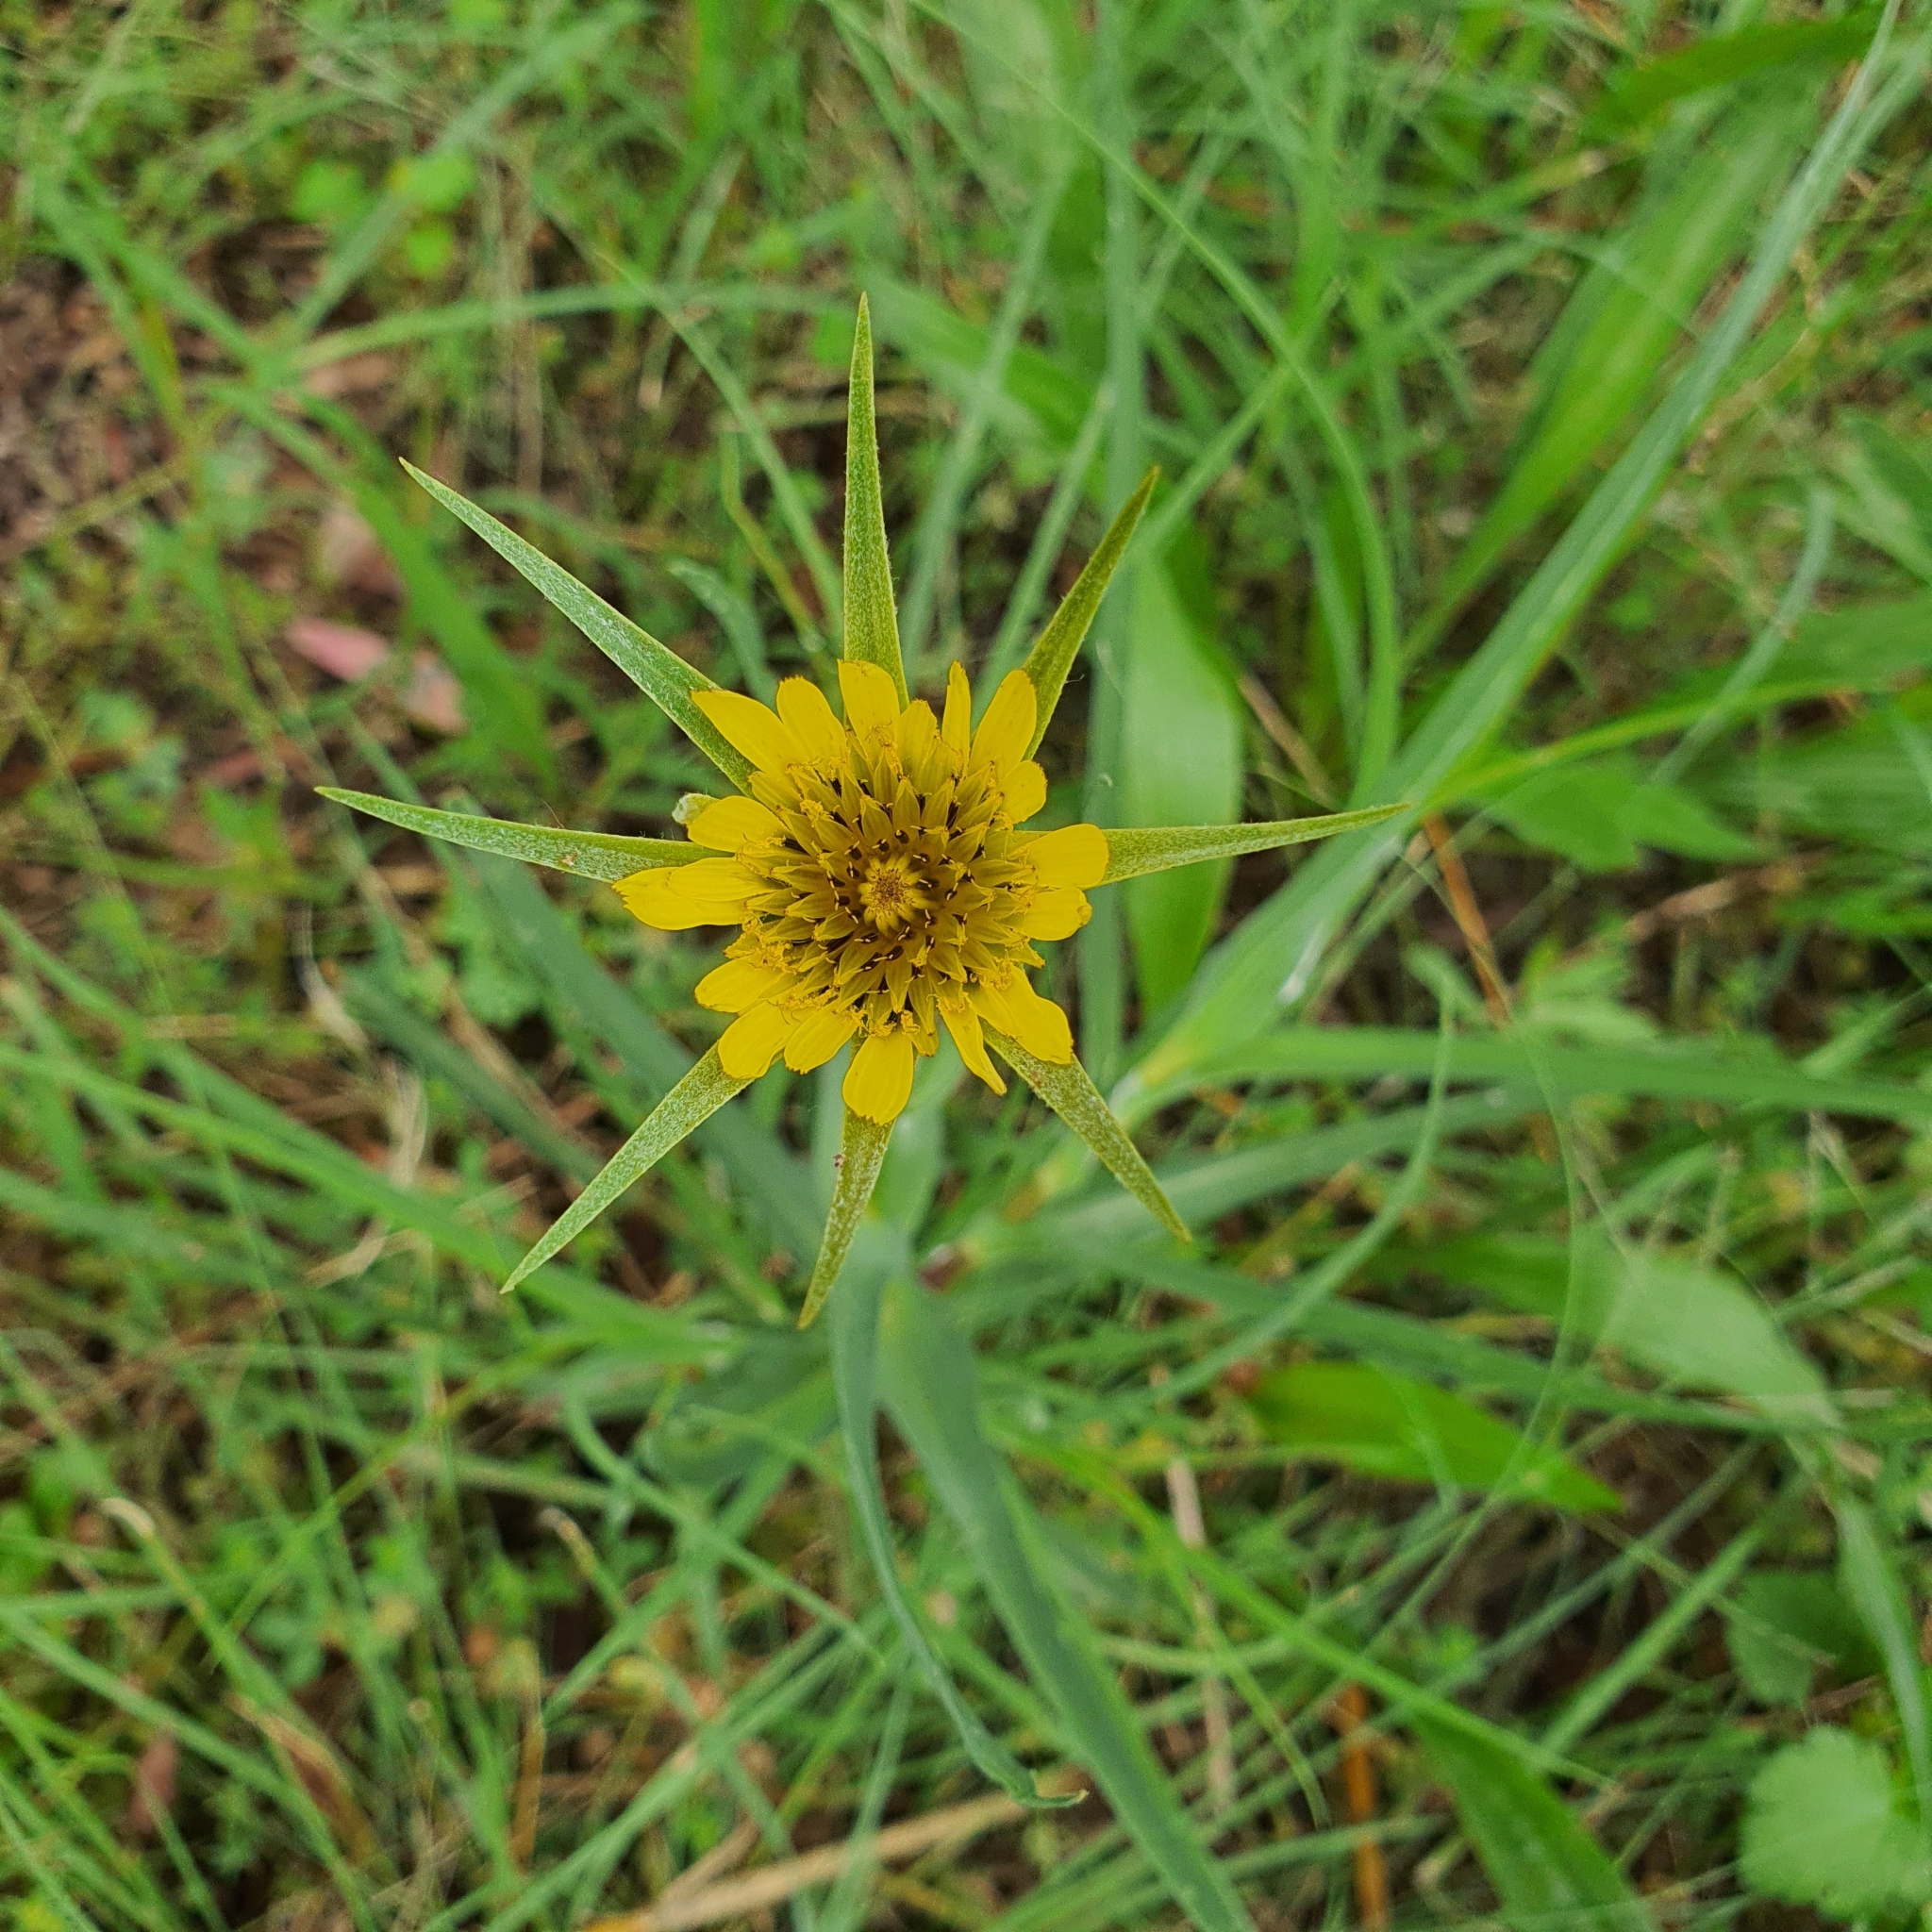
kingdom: Plantae
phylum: Tracheophyta
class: Magnoliopsida
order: Asterales
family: Asteraceae
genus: Tragopogon
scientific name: Tragopogon dubius
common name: Yellow salsify
